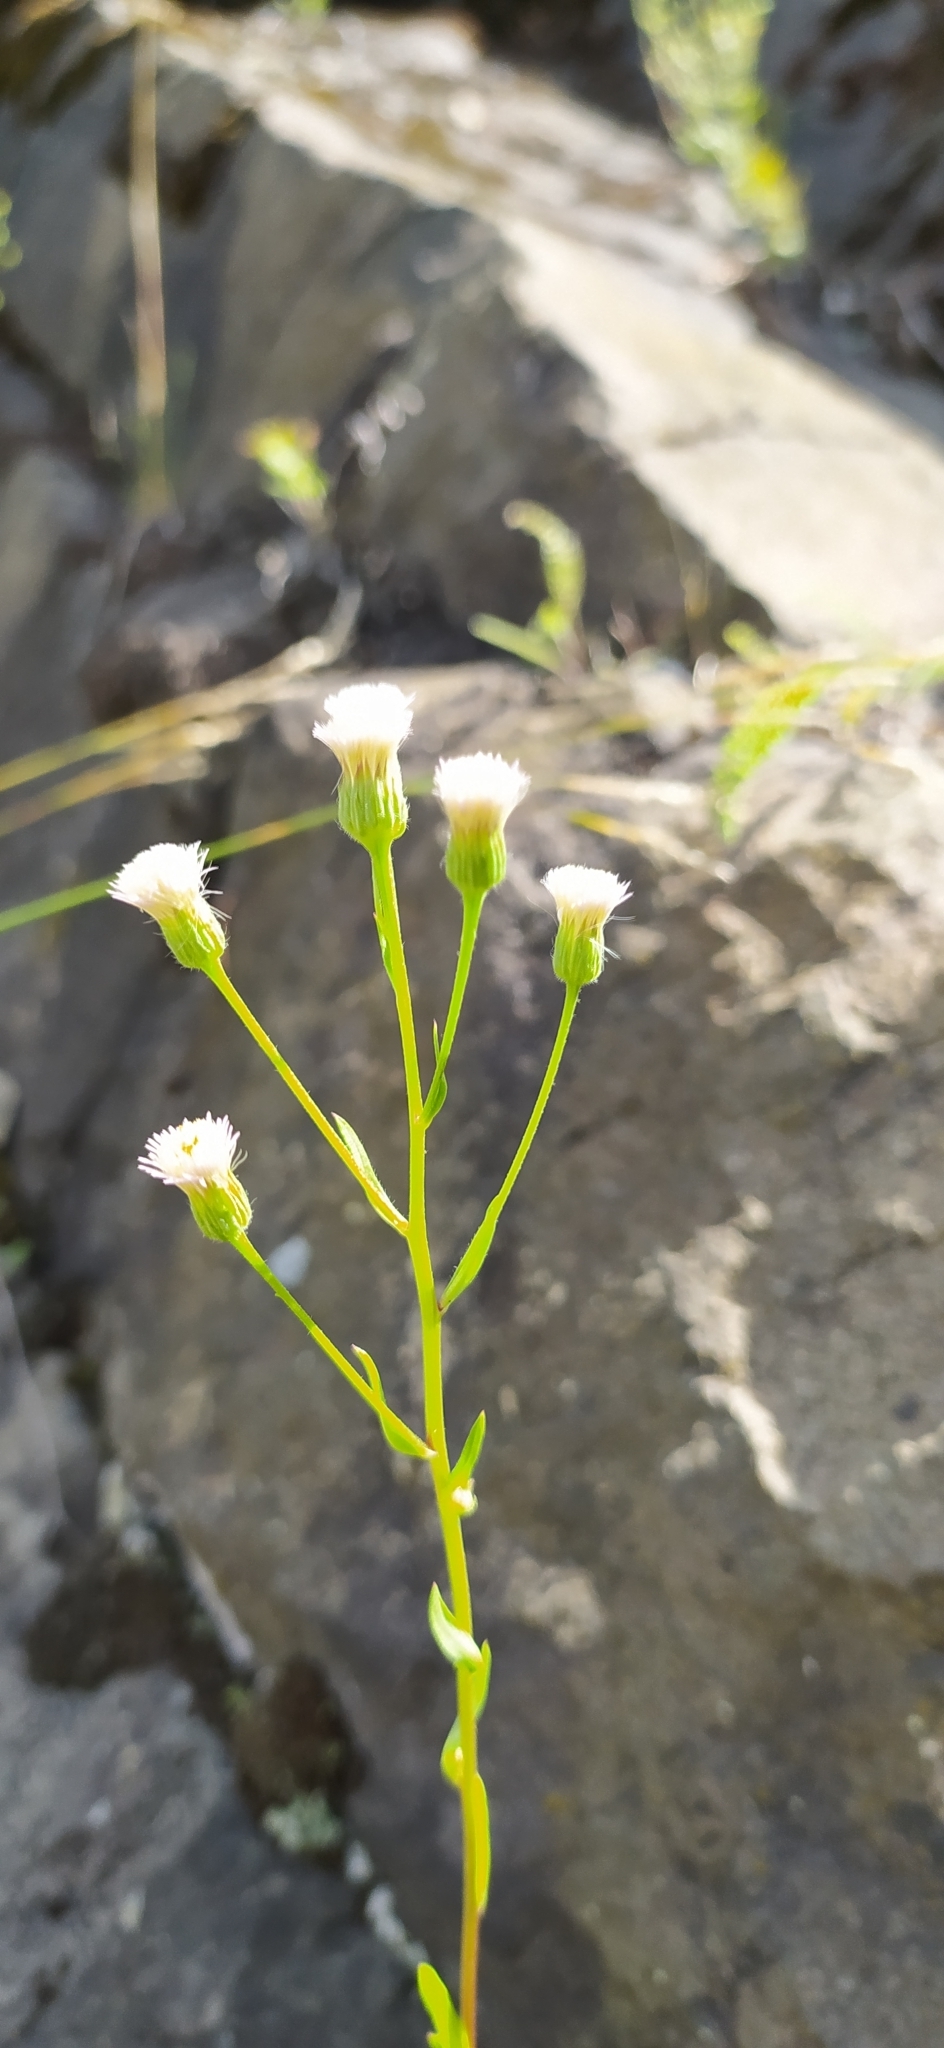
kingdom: Plantae
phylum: Tracheophyta
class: Magnoliopsida
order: Asterales
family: Asteraceae
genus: Erigeron
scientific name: Erigeron acris
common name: Blue fleabane
